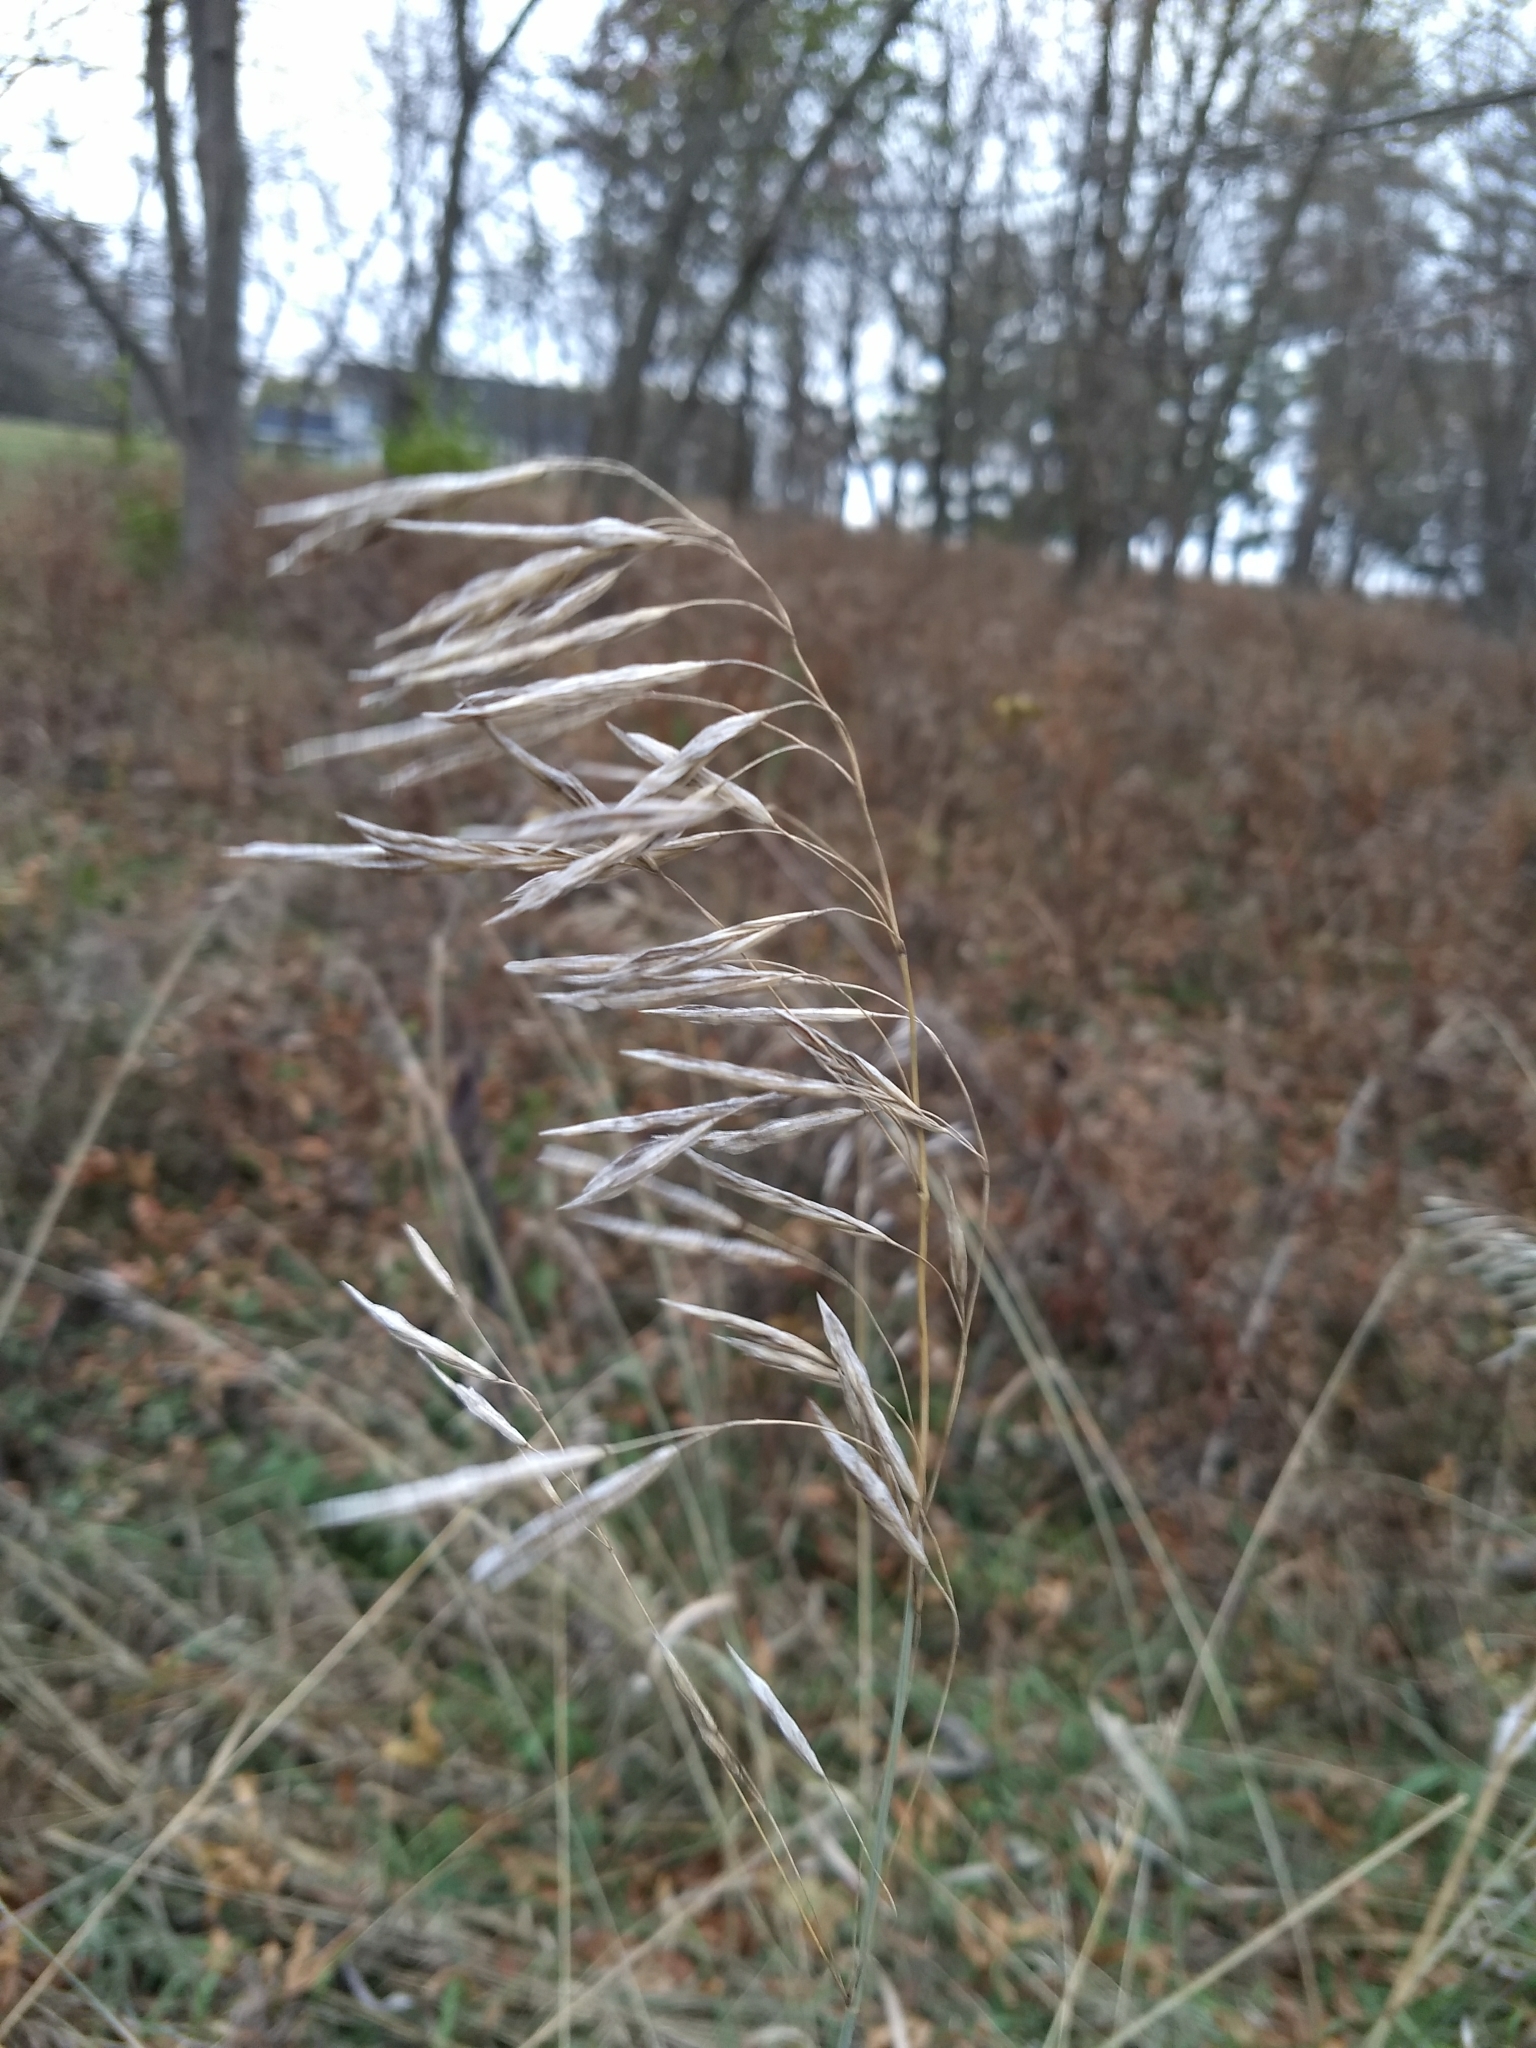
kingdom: Plantae
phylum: Tracheophyta
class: Liliopsida
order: Poales
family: Poaceae
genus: Bromus
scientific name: Bromus inermis
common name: Smooth brome
